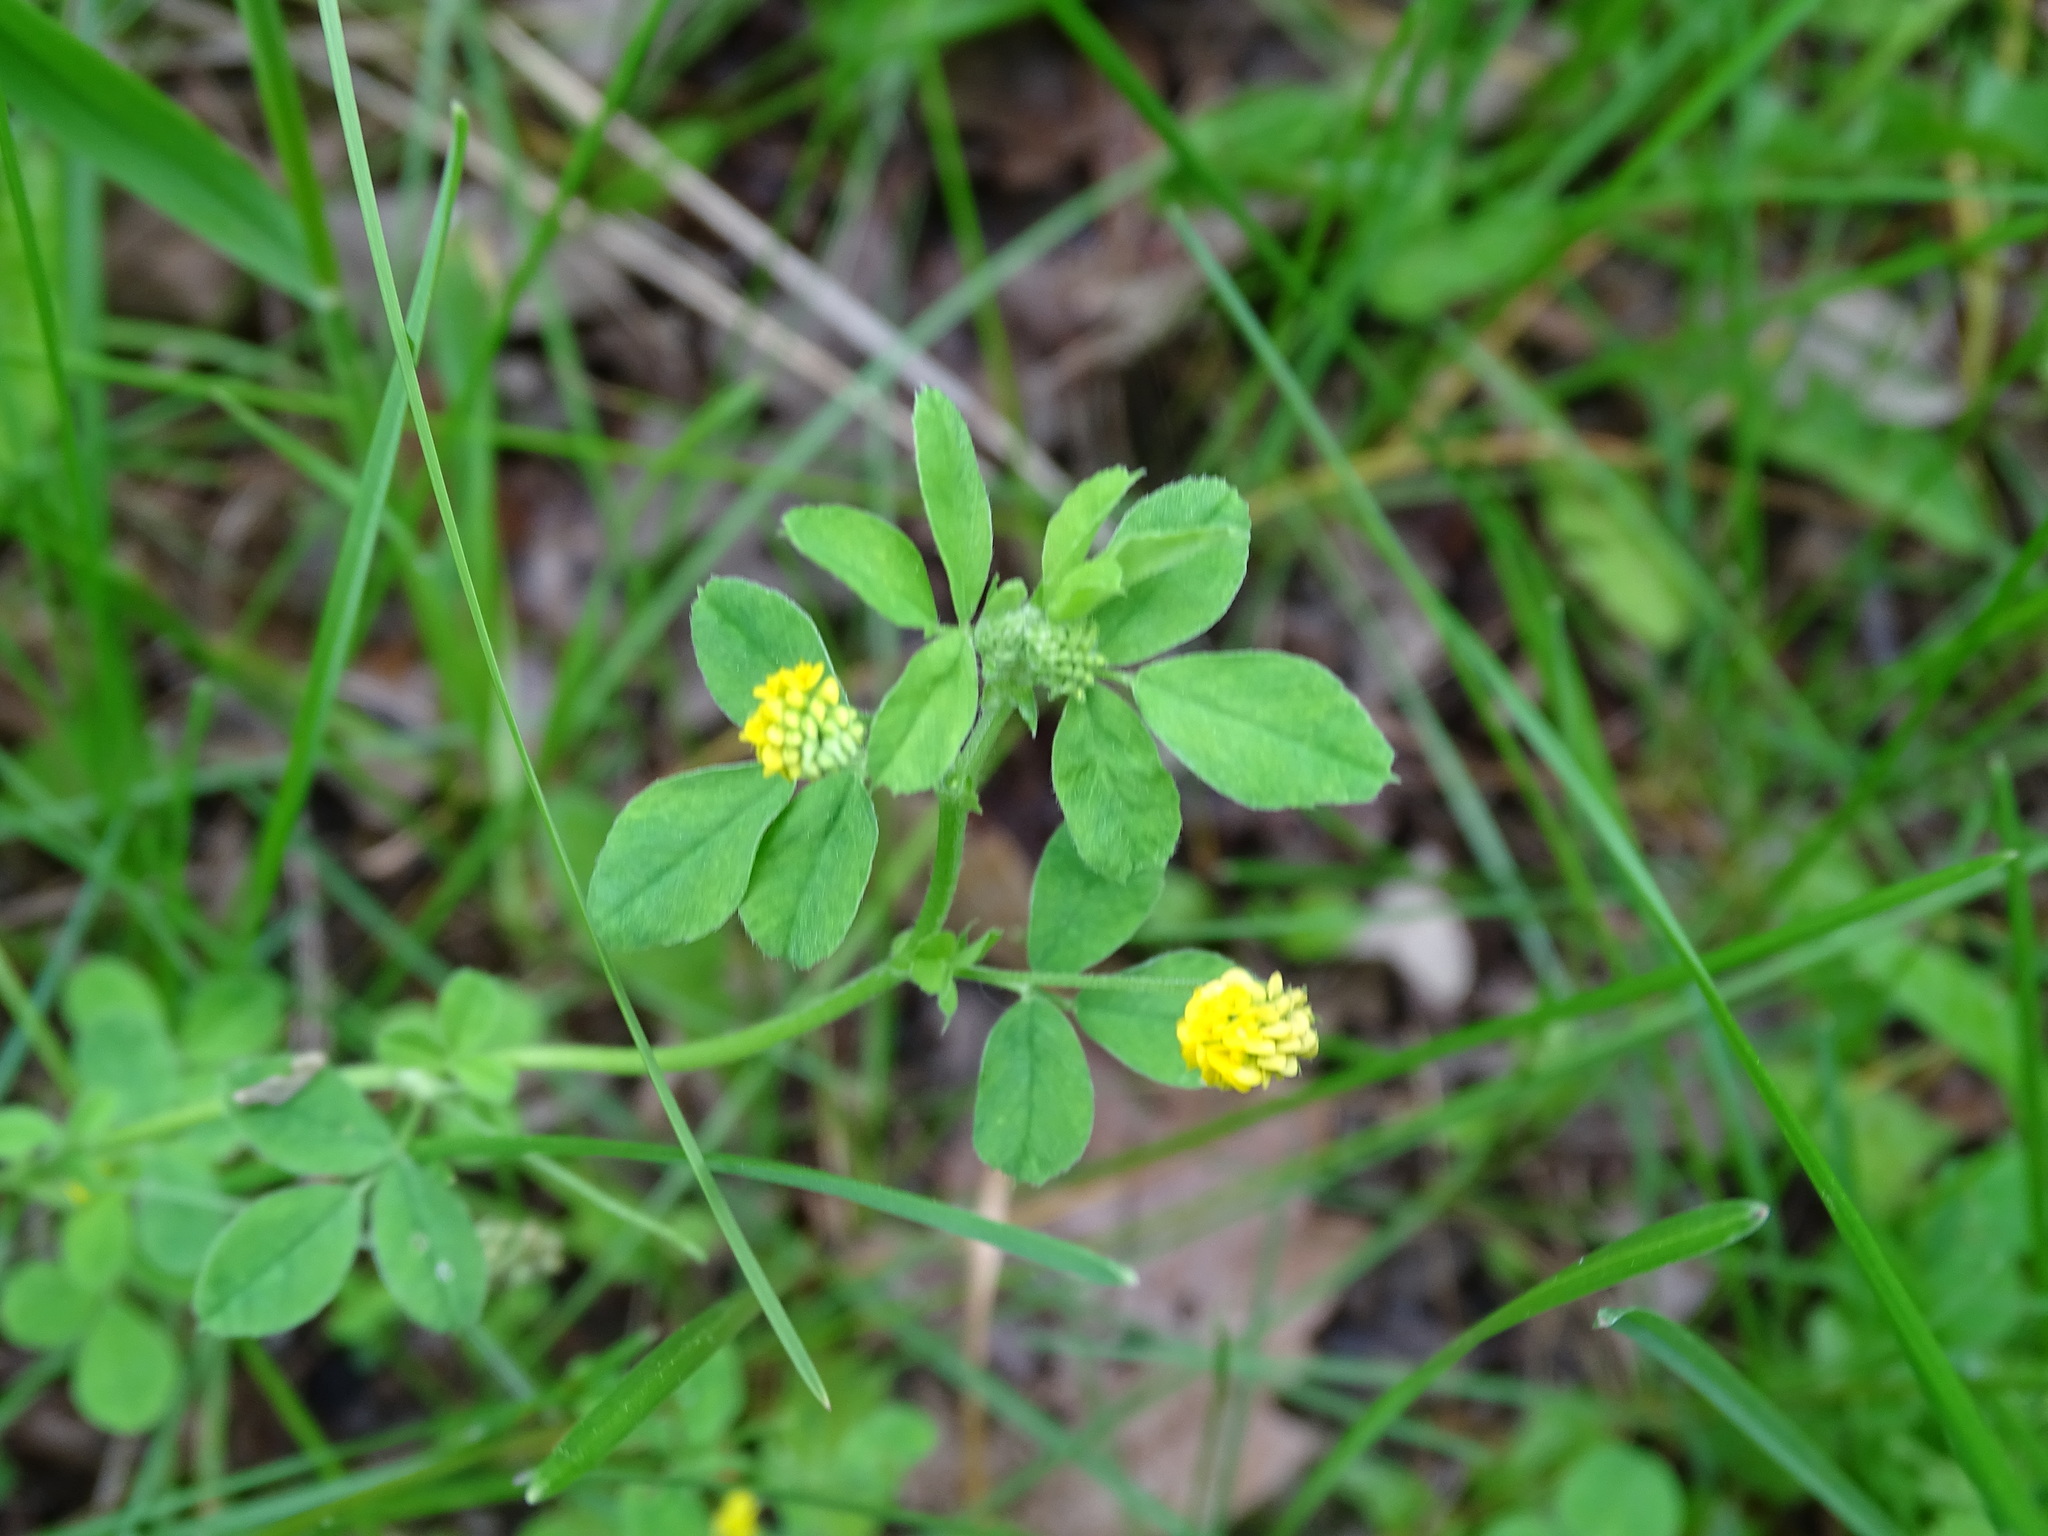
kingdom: Plantae
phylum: Tracheophyta
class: Magnoliopsida
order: Fabales
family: Fabaceae
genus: Medicago
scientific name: Medicago lupulina
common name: Black medick
